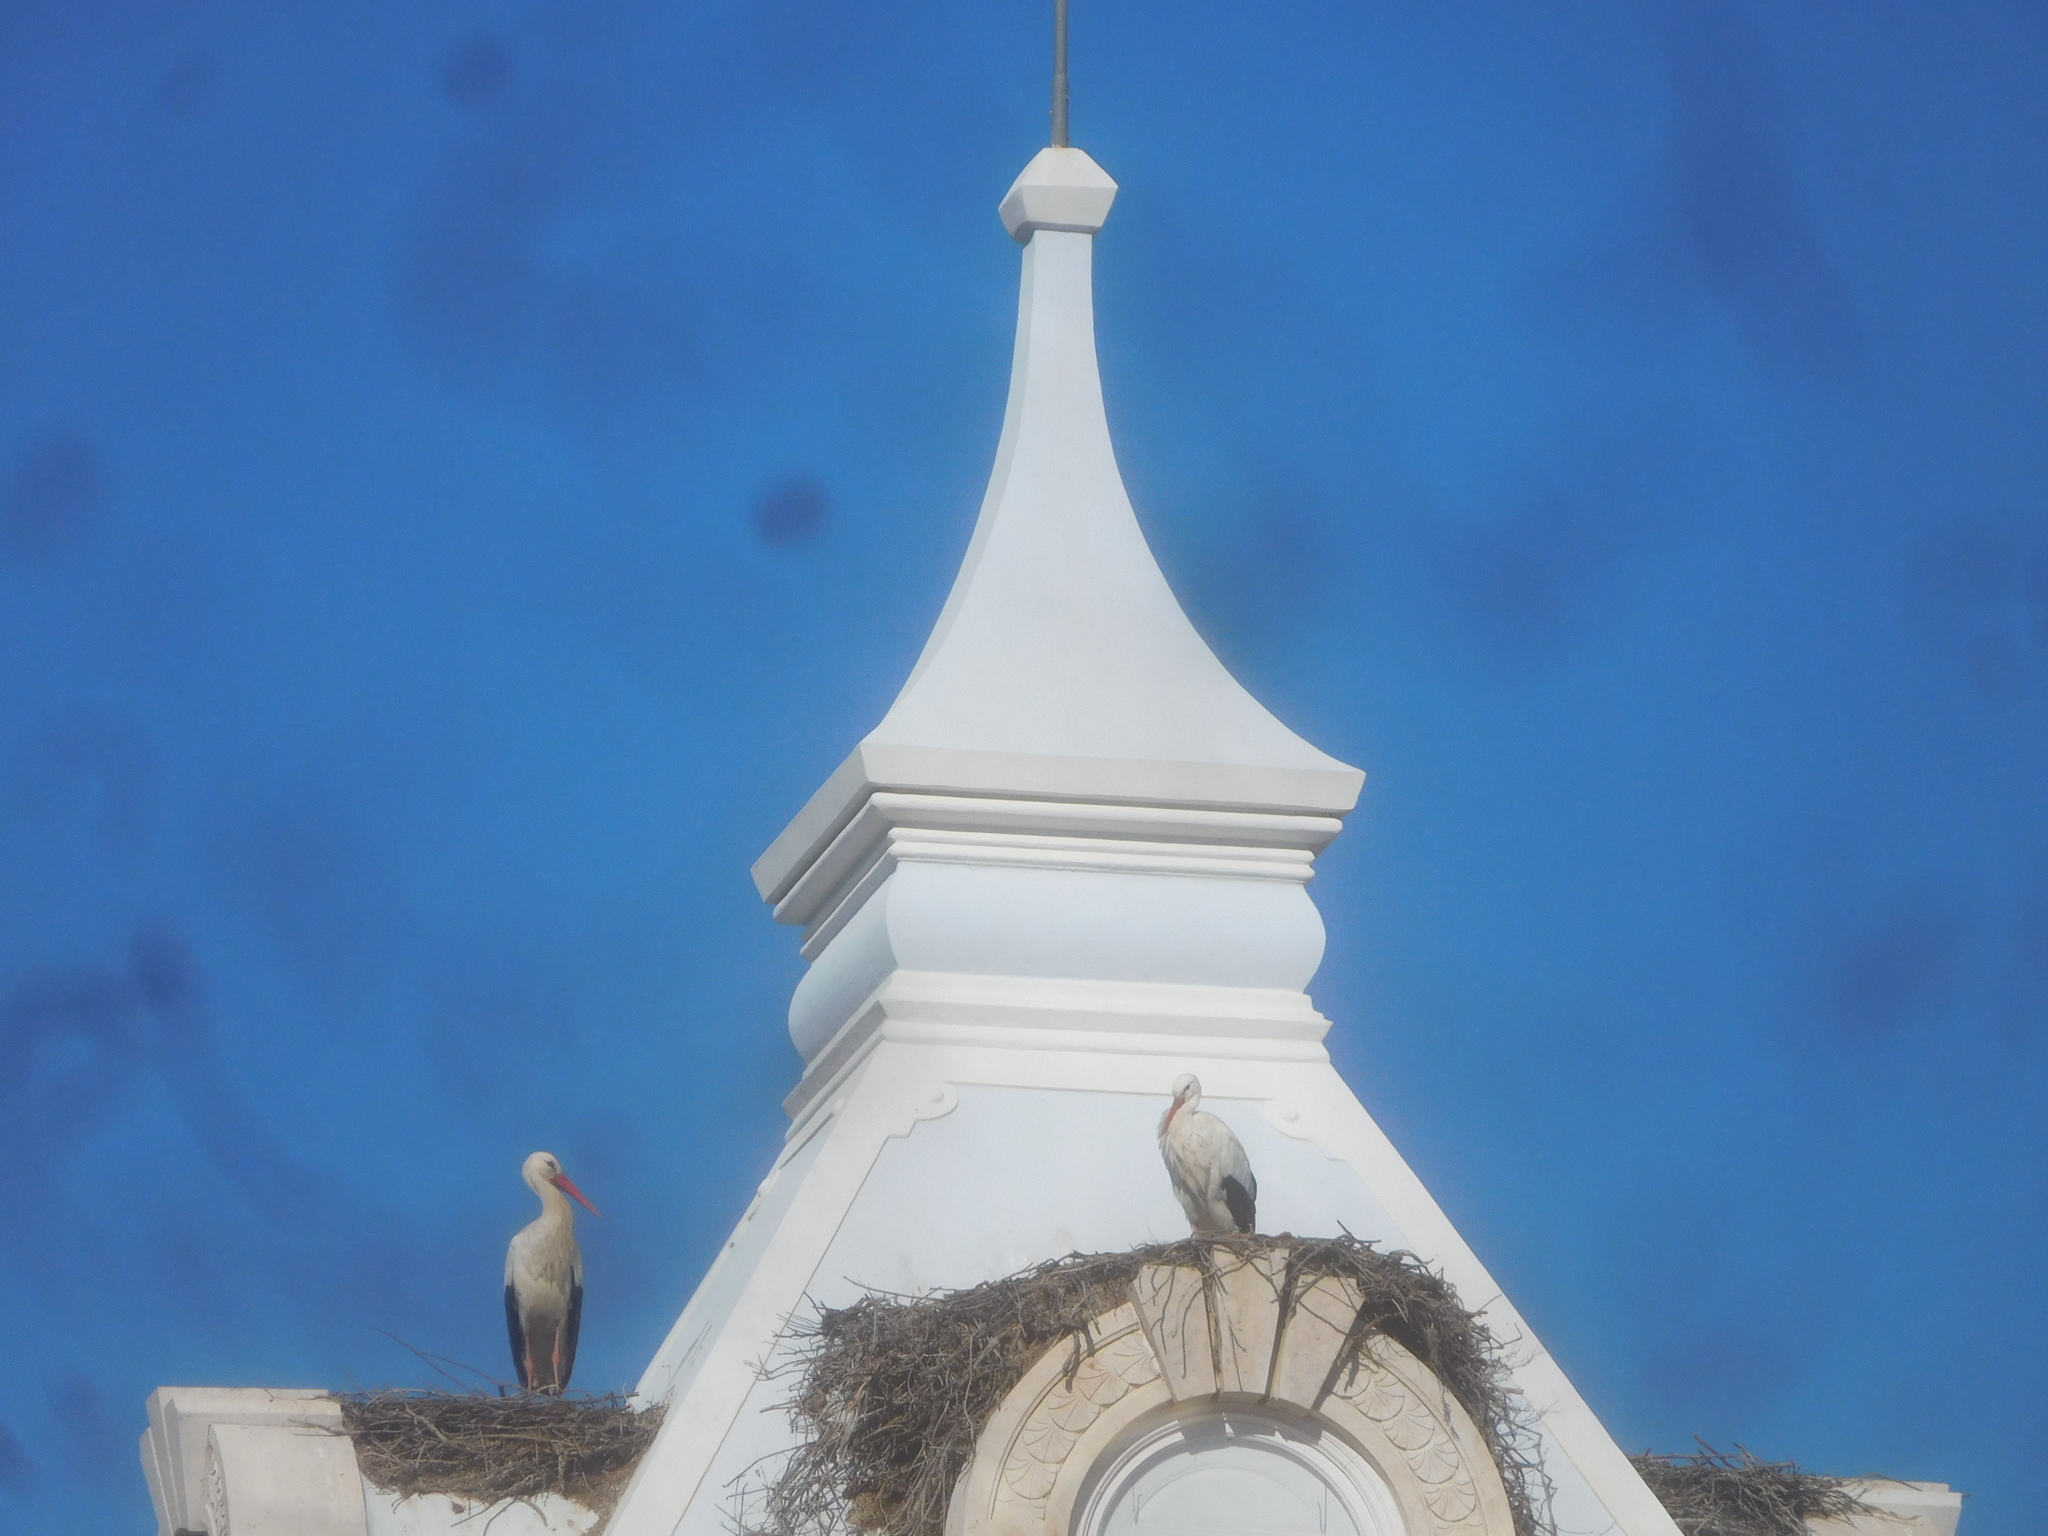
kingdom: Animalia
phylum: Chordata
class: Aves
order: Ciconiiformes
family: Ciconiidae
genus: Ciconia
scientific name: Ciconia ciconia
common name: White stork
